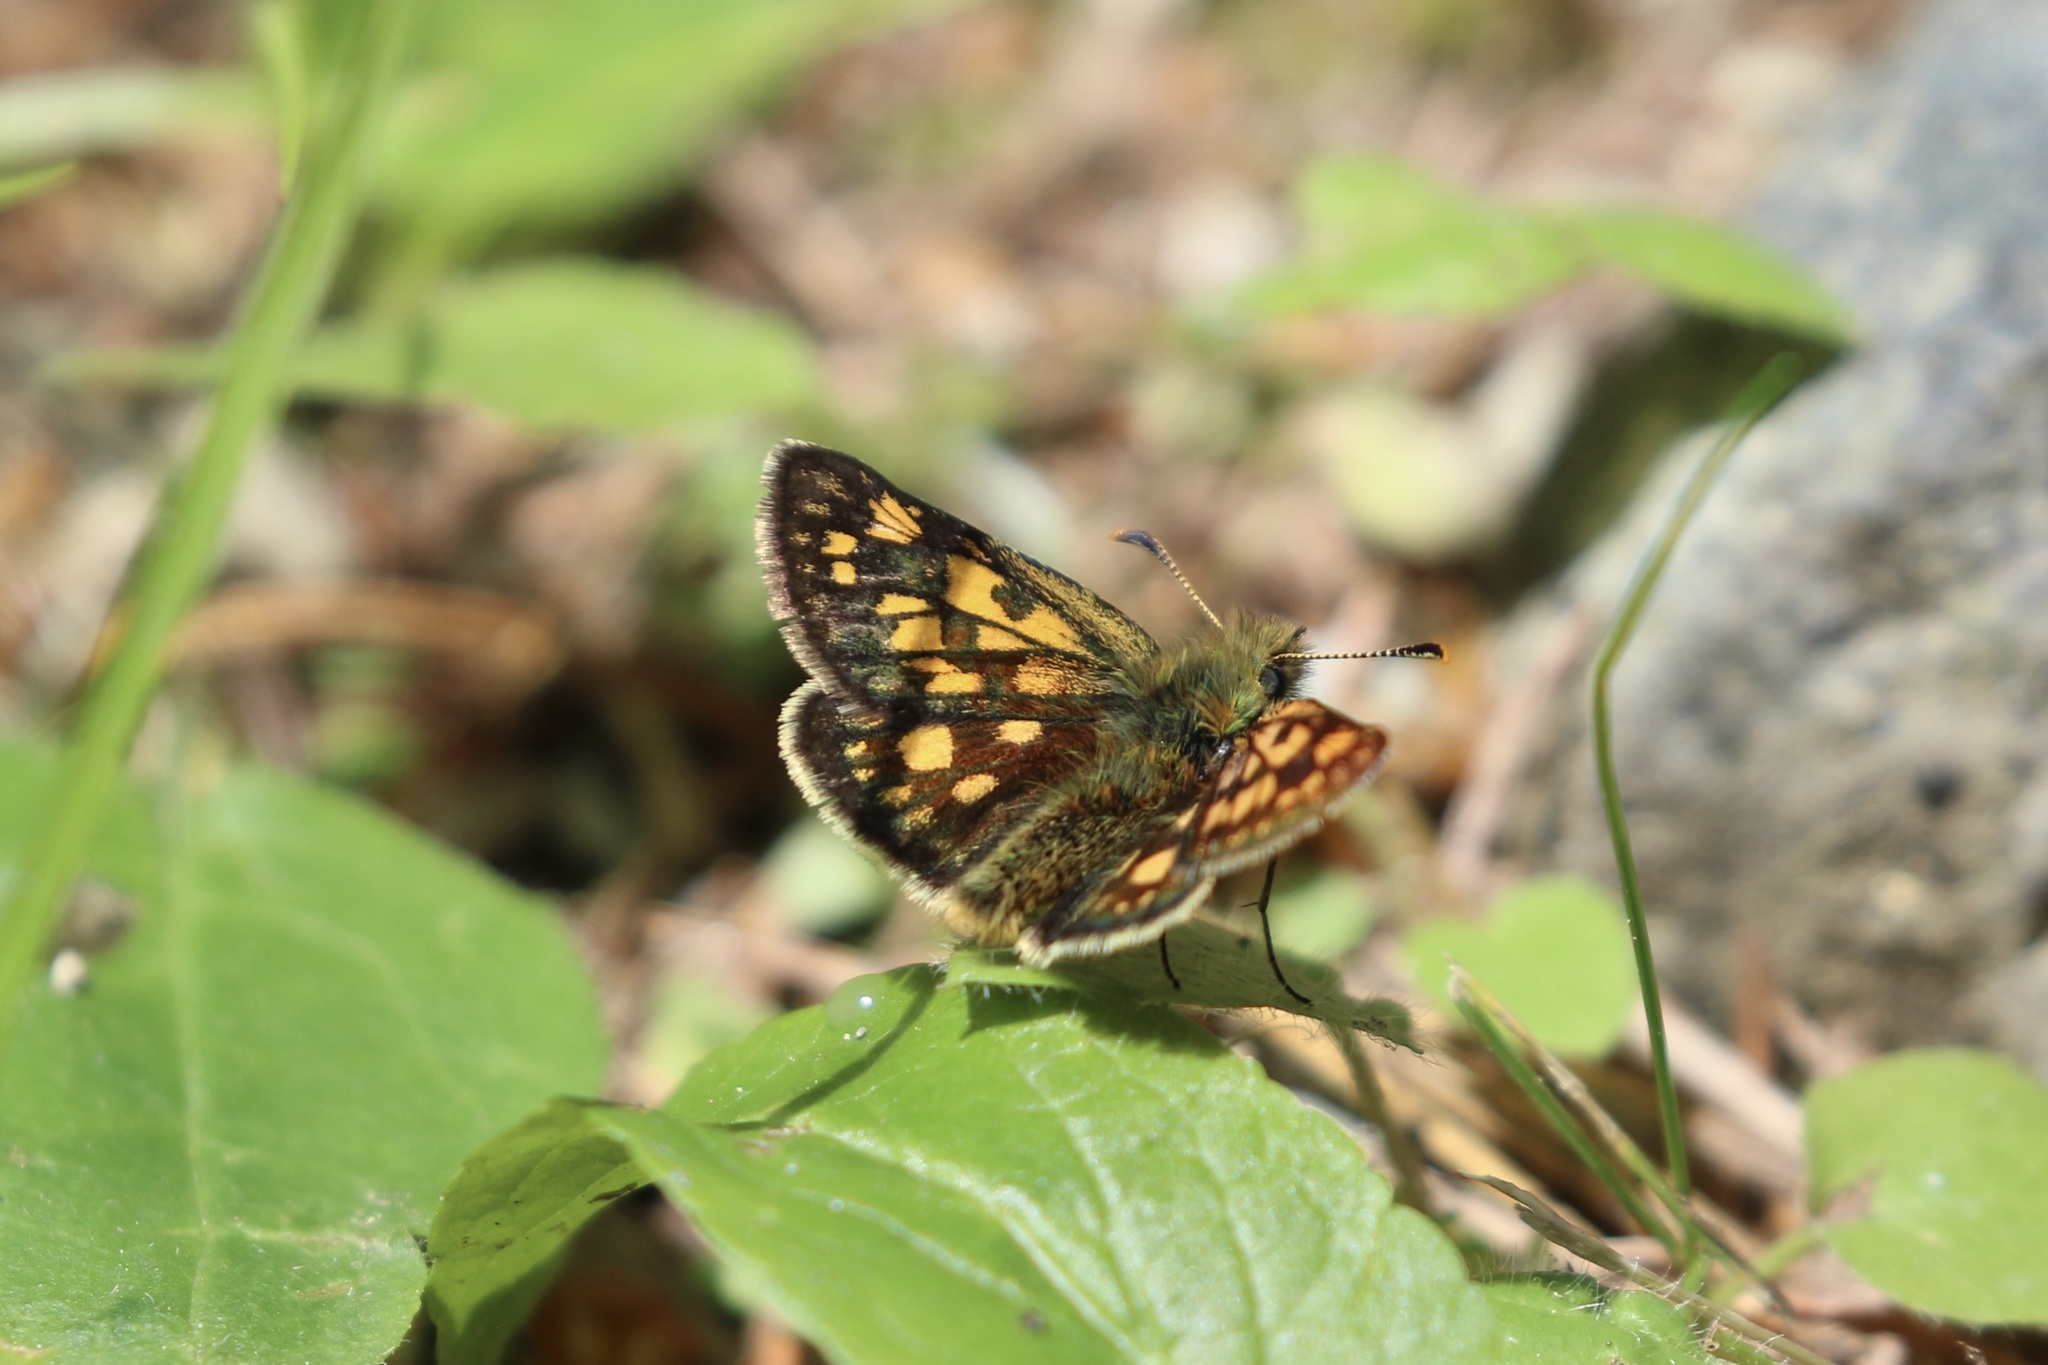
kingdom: Animalia
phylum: Arthropoda
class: Insecta
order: Lepidoptera
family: Hesperiidae
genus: Carterocephalus
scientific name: Carterocephalus palaemon
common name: Chequered skipper
